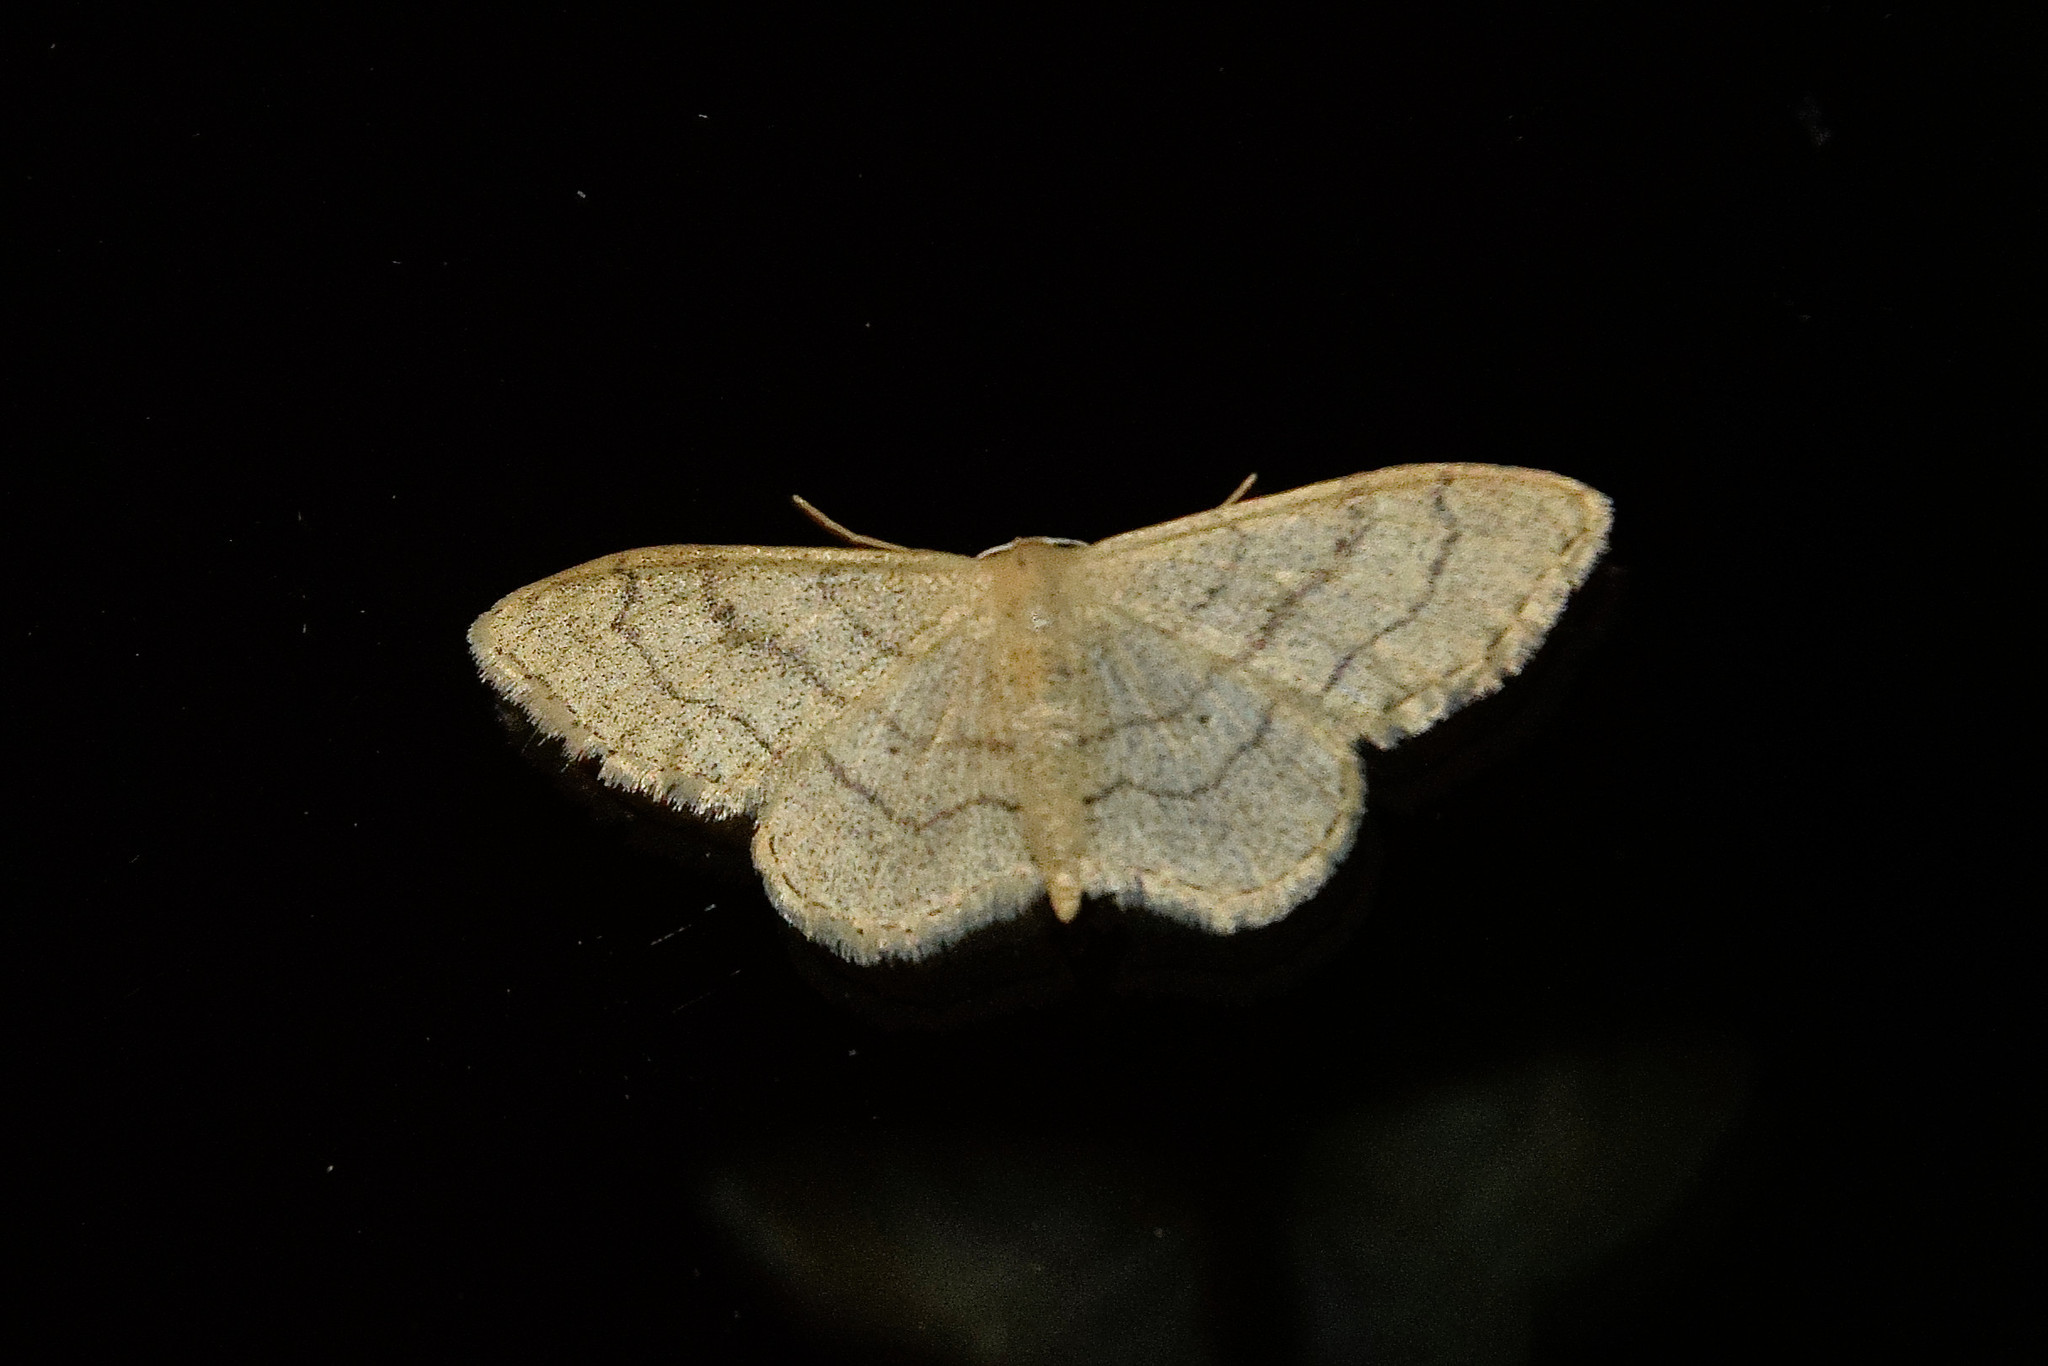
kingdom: Animalia
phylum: Arthropoda
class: Insecta
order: Lepidoptera
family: Geometridae
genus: Idaea
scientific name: Idaea aversata
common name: Riband wave
